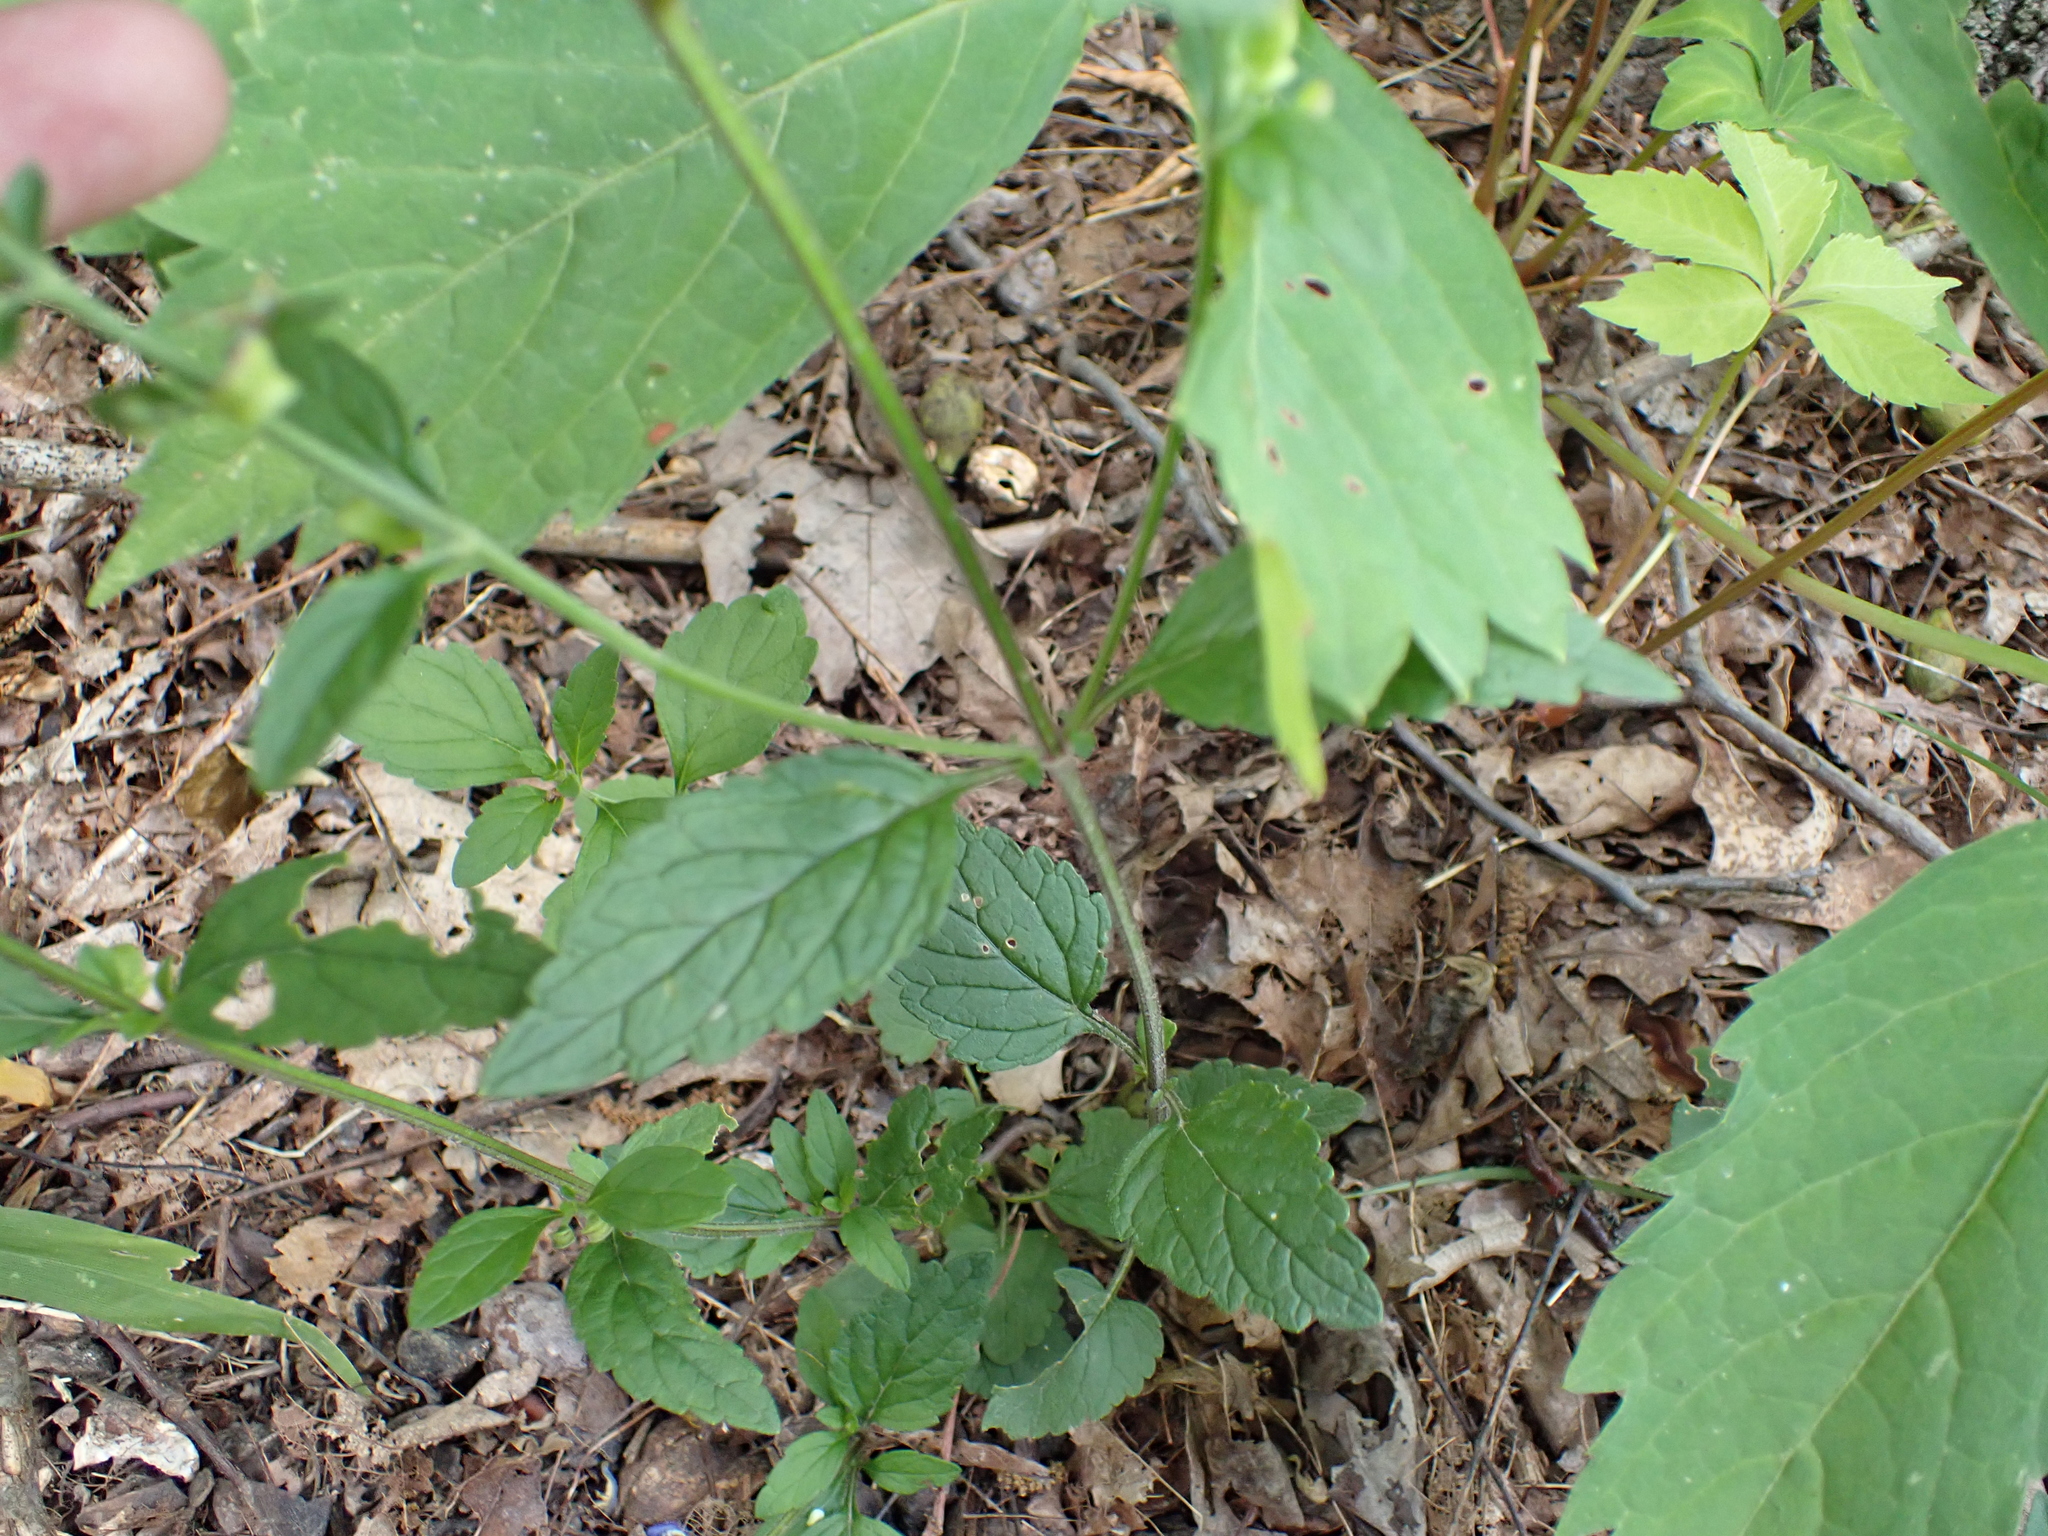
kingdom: Plantae
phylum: Tracheophyta
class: Magnoliopsida
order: Lamiales
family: Lamiaceae
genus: Scutellaria
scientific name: Scutellaria elliptica
